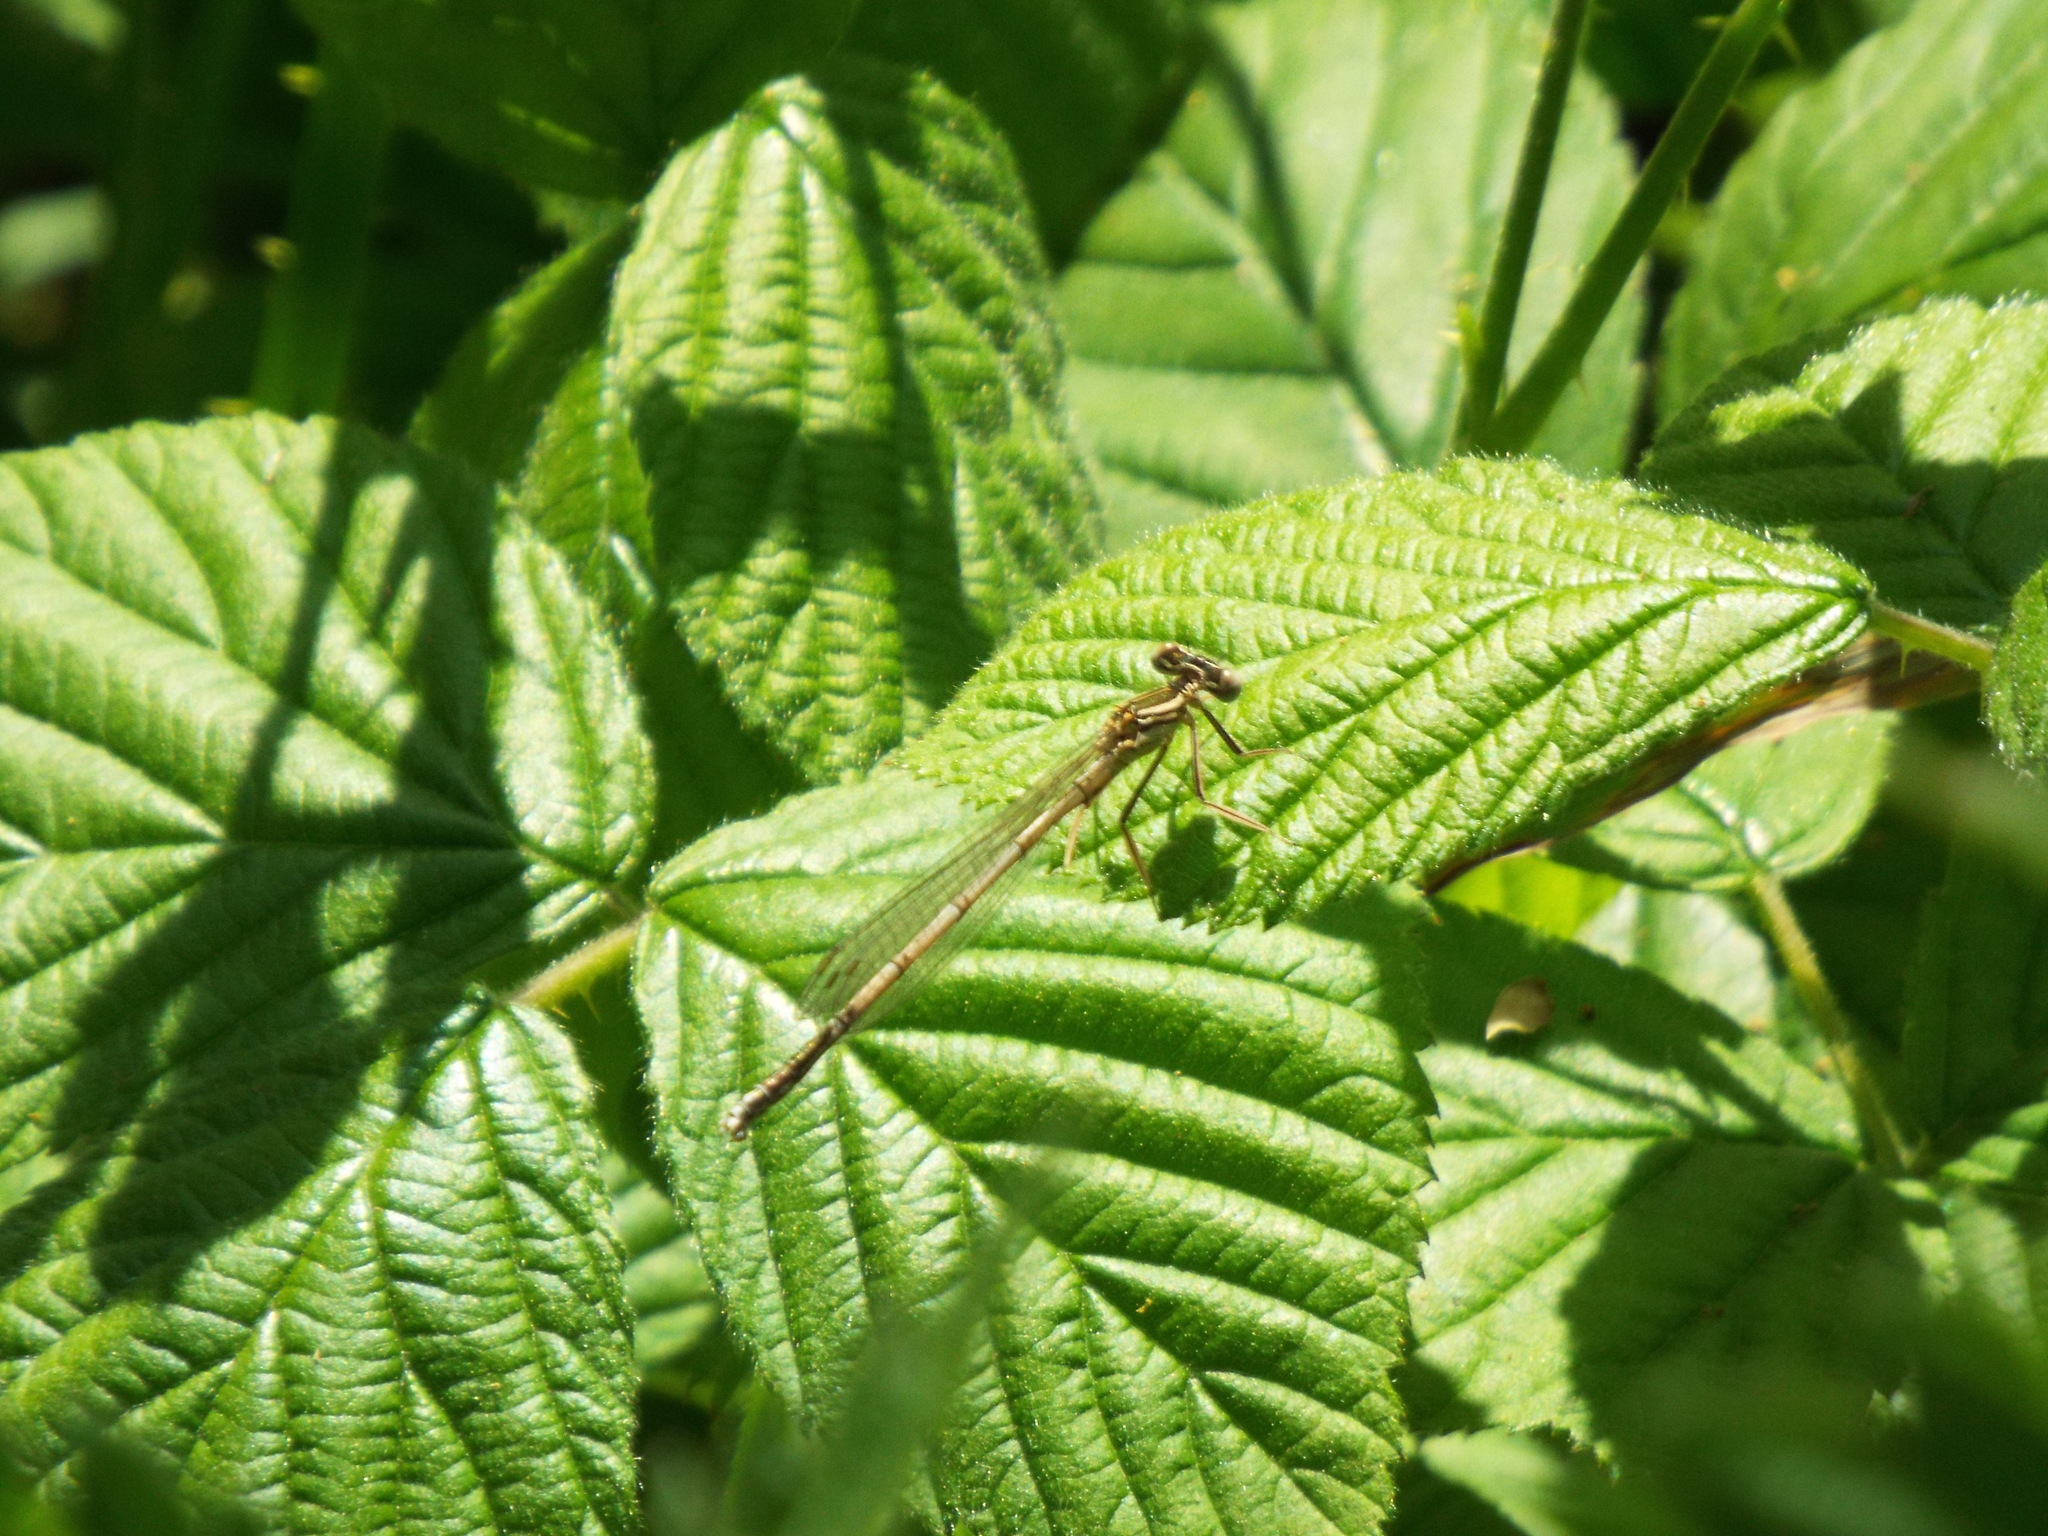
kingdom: Animalia
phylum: Arthropoda
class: Insecta
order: Odonata
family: Platycnemididae
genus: Platycnemis
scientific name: Platycnemis pennipes
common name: White-legged damselfly
